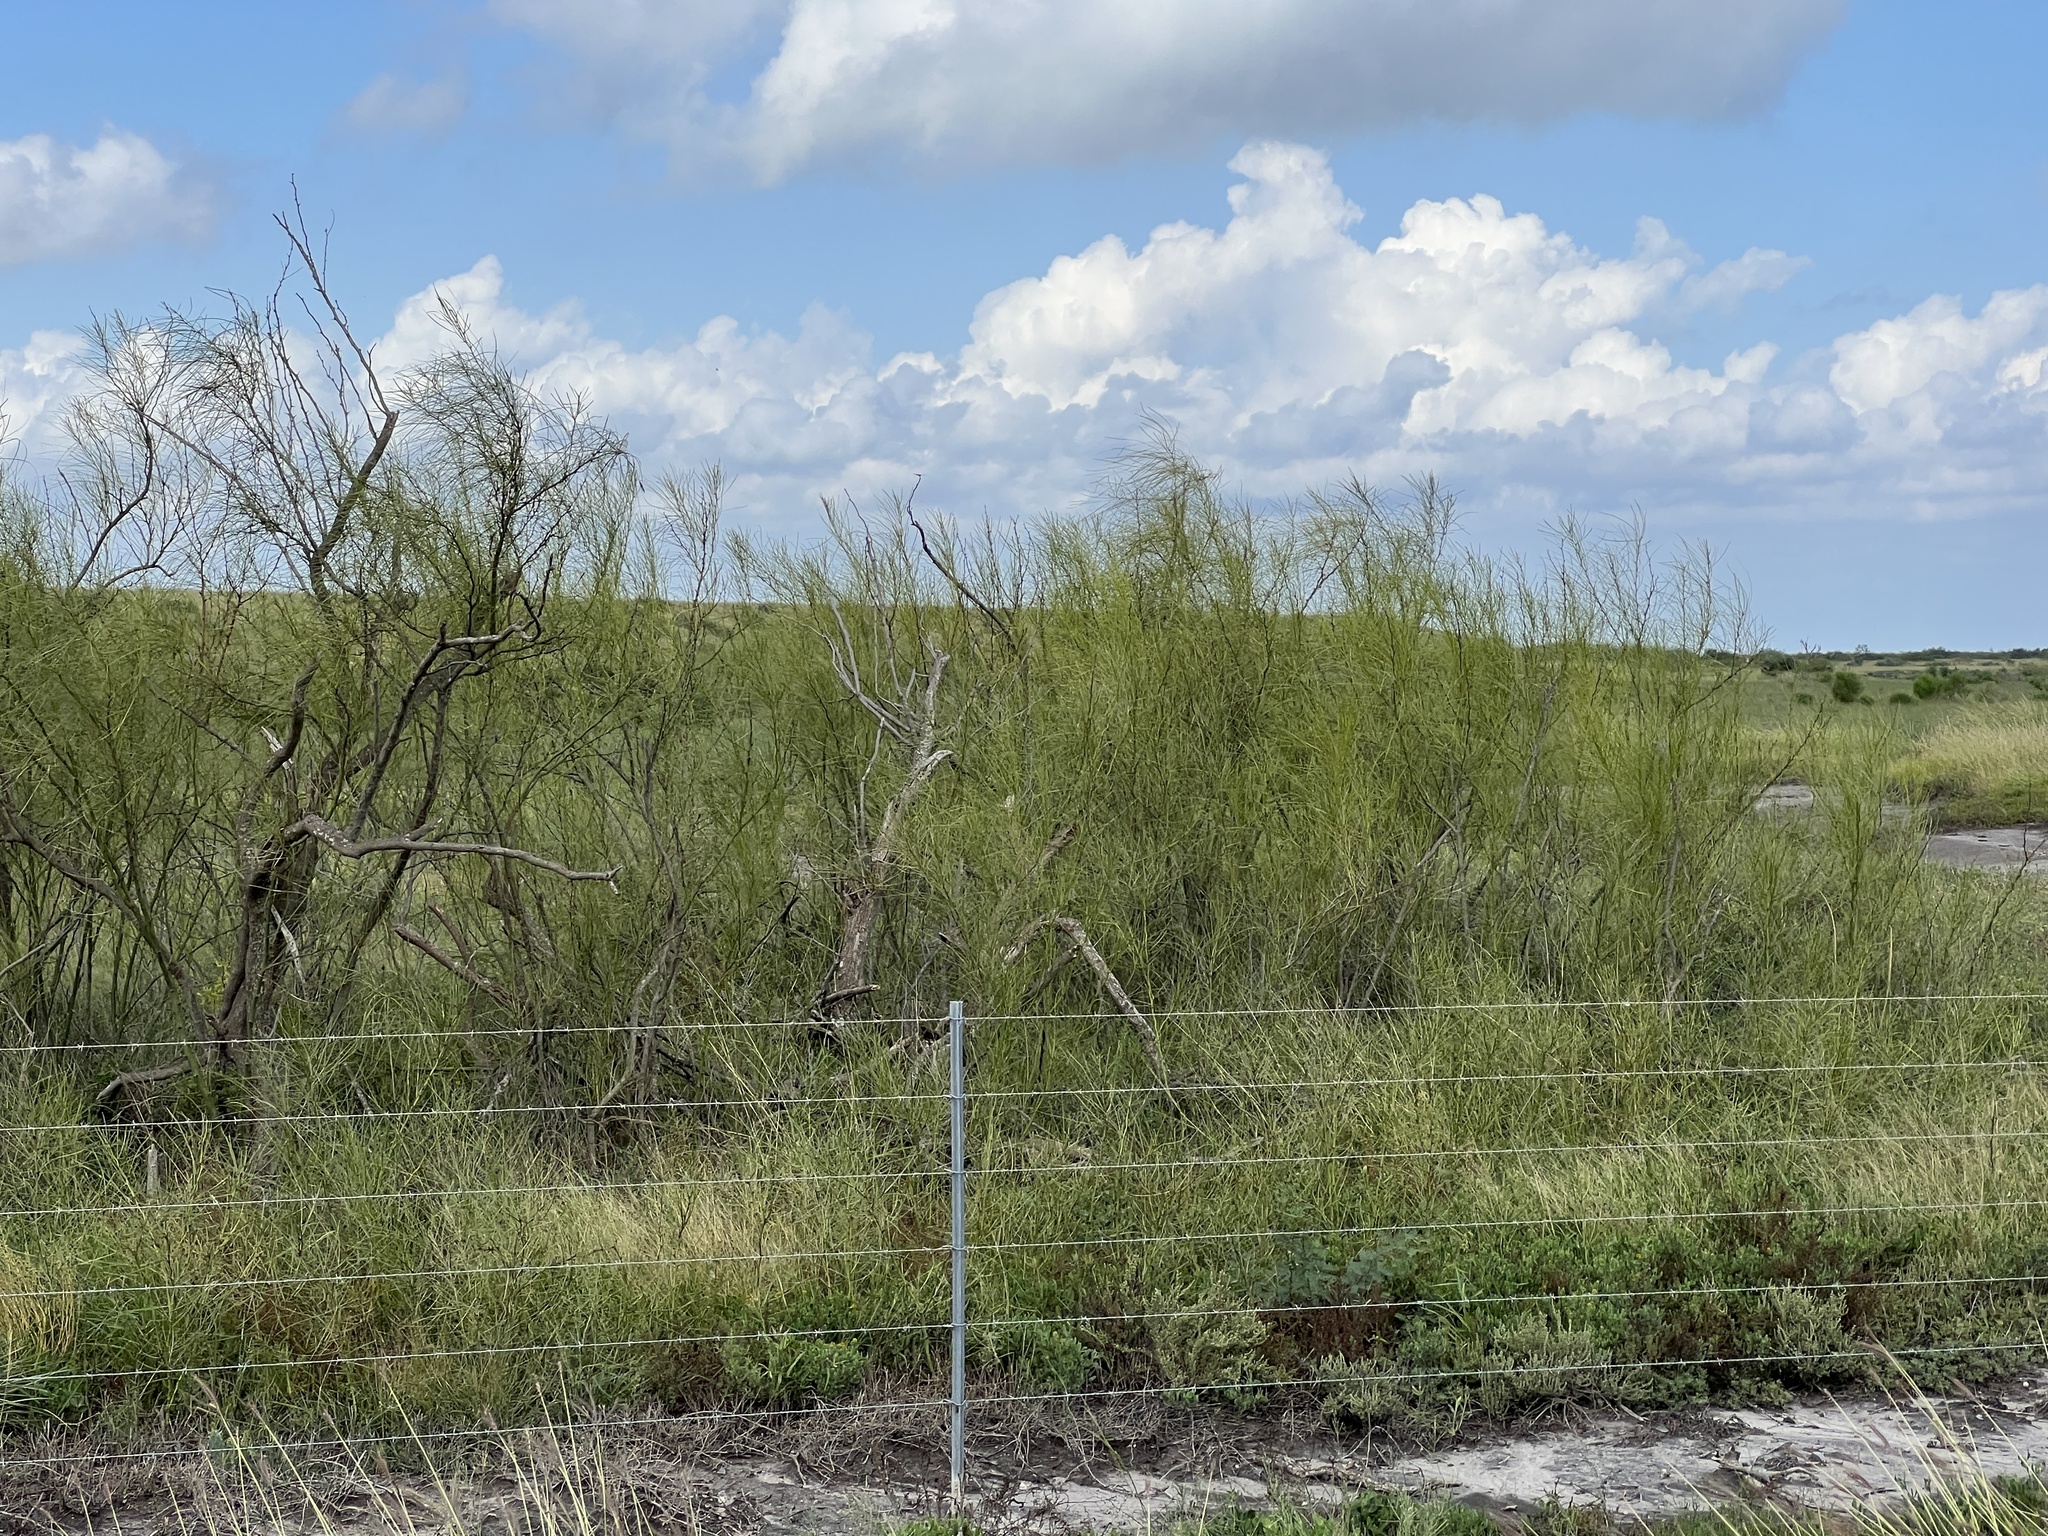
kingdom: Plantae
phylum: Tracheophyta
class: Magnoliopsida
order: Fabales
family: Fabaceae
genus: Parkinsonia
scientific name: Parkinsonia aculeata
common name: Jerusalem thorn
